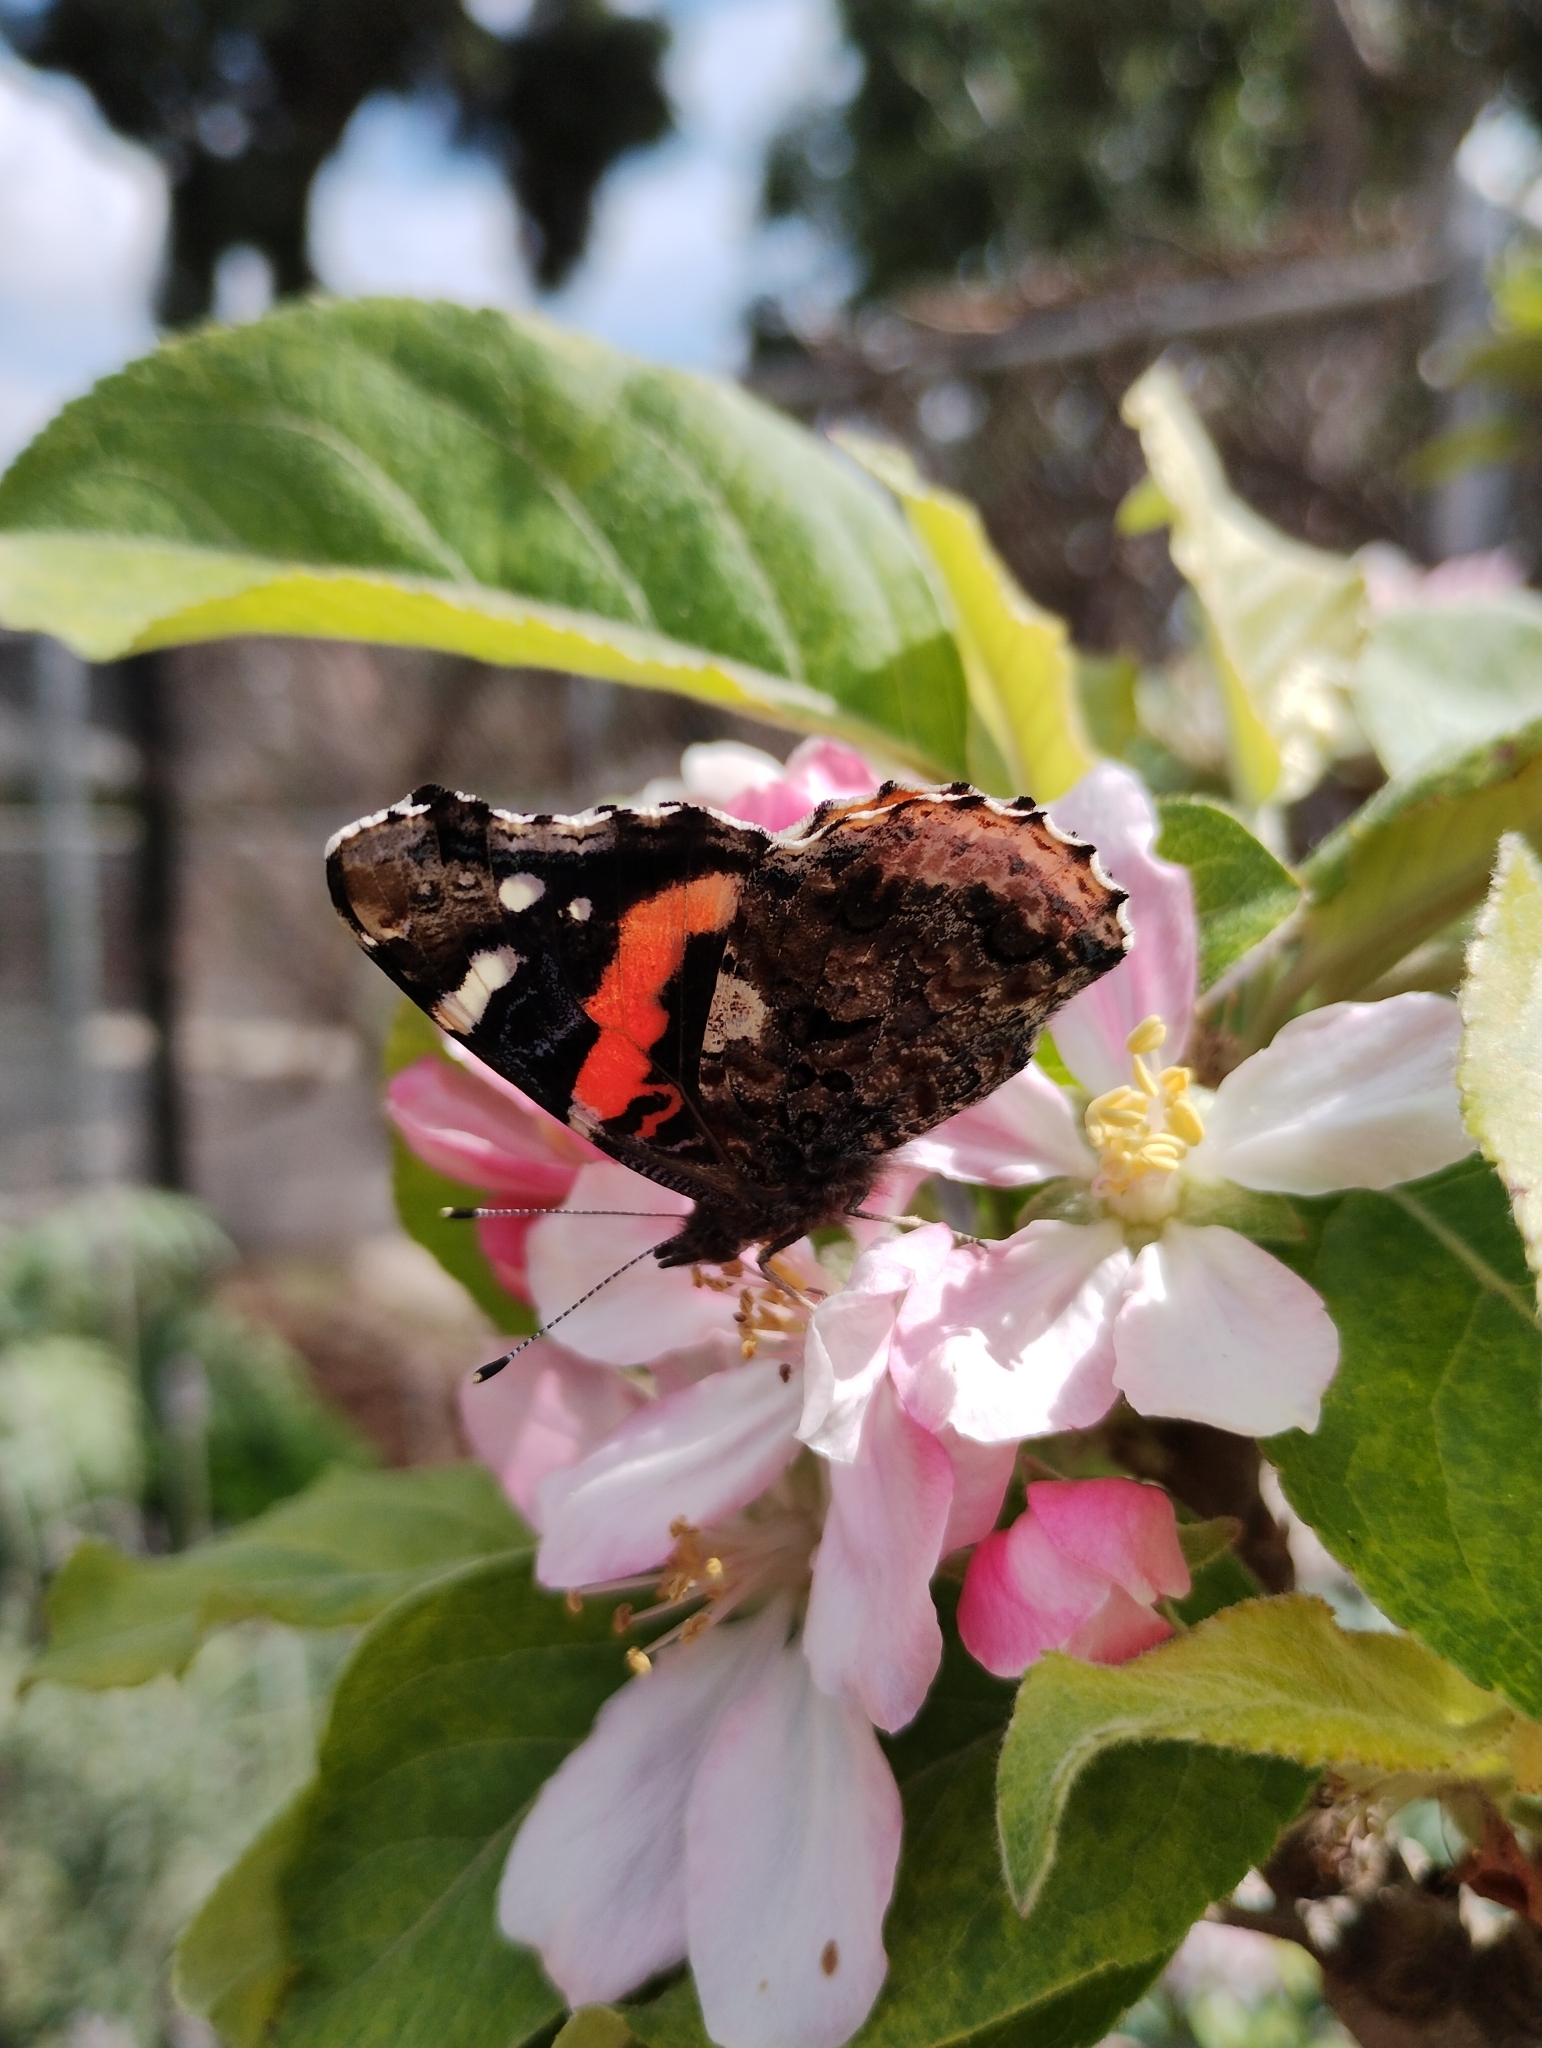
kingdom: Animalia
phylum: Arthropoda
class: Insecta
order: Lepidoptera
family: Nymphalidae
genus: Vanessa
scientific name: Vanessa atalanta
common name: Red admiral
